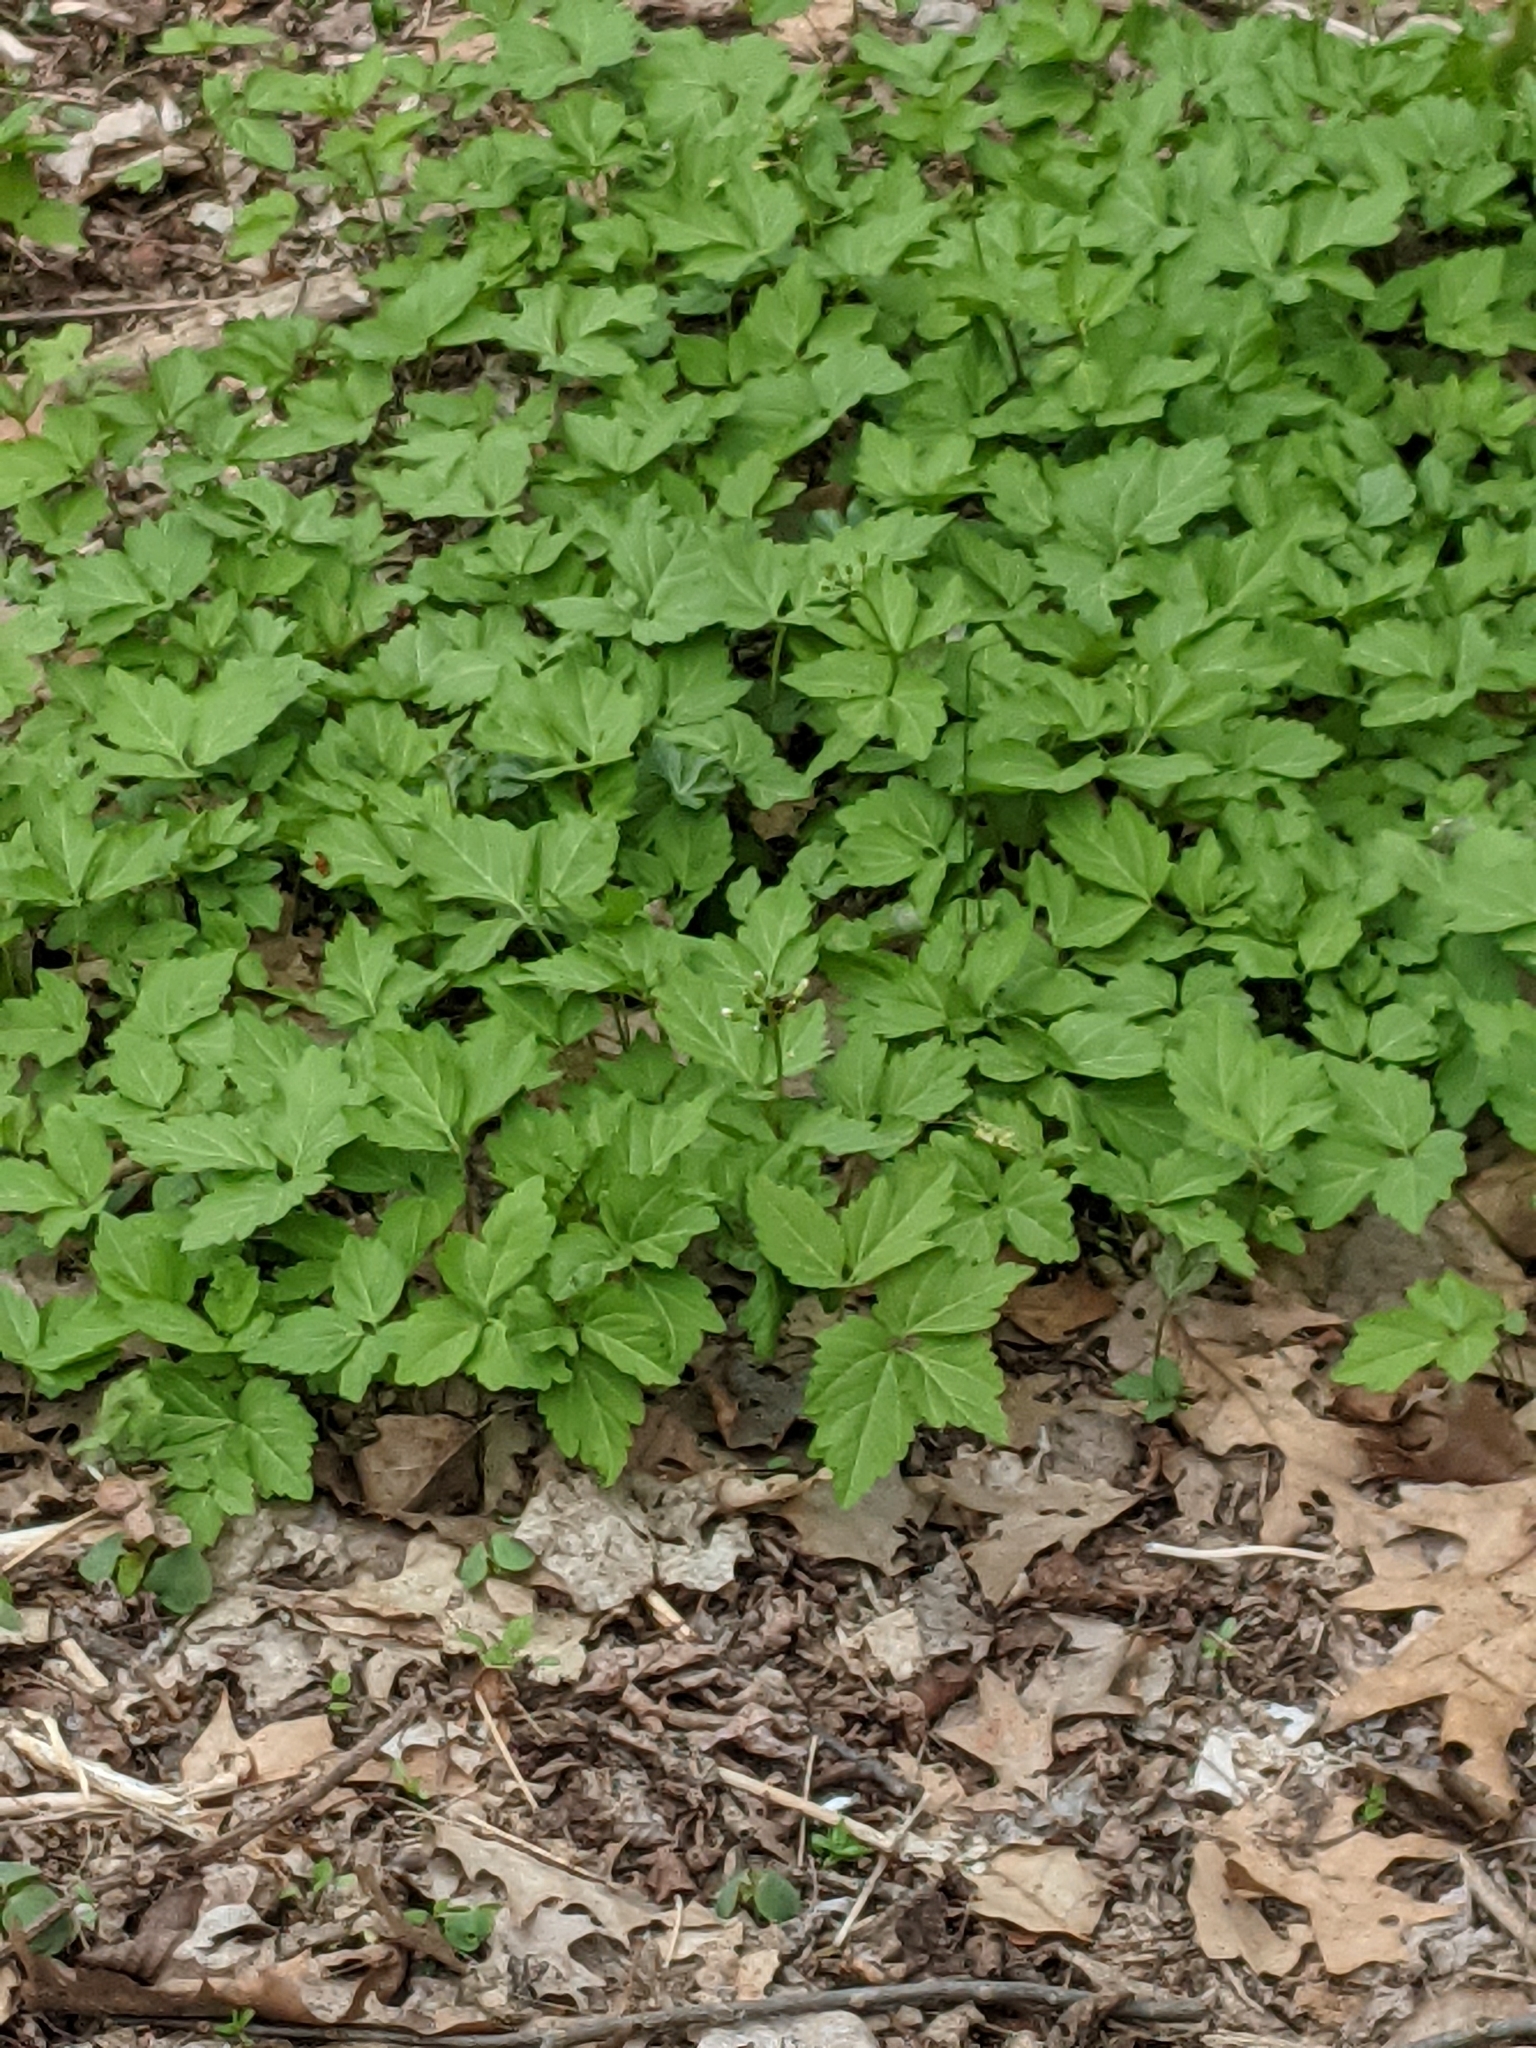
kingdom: Plantae
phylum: Tracheophyta
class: Magnoliopsida
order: Brassicales
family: Brassicaceae
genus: Cardamine
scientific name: Cardamine diphylla
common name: Broad-leaved toothwort
